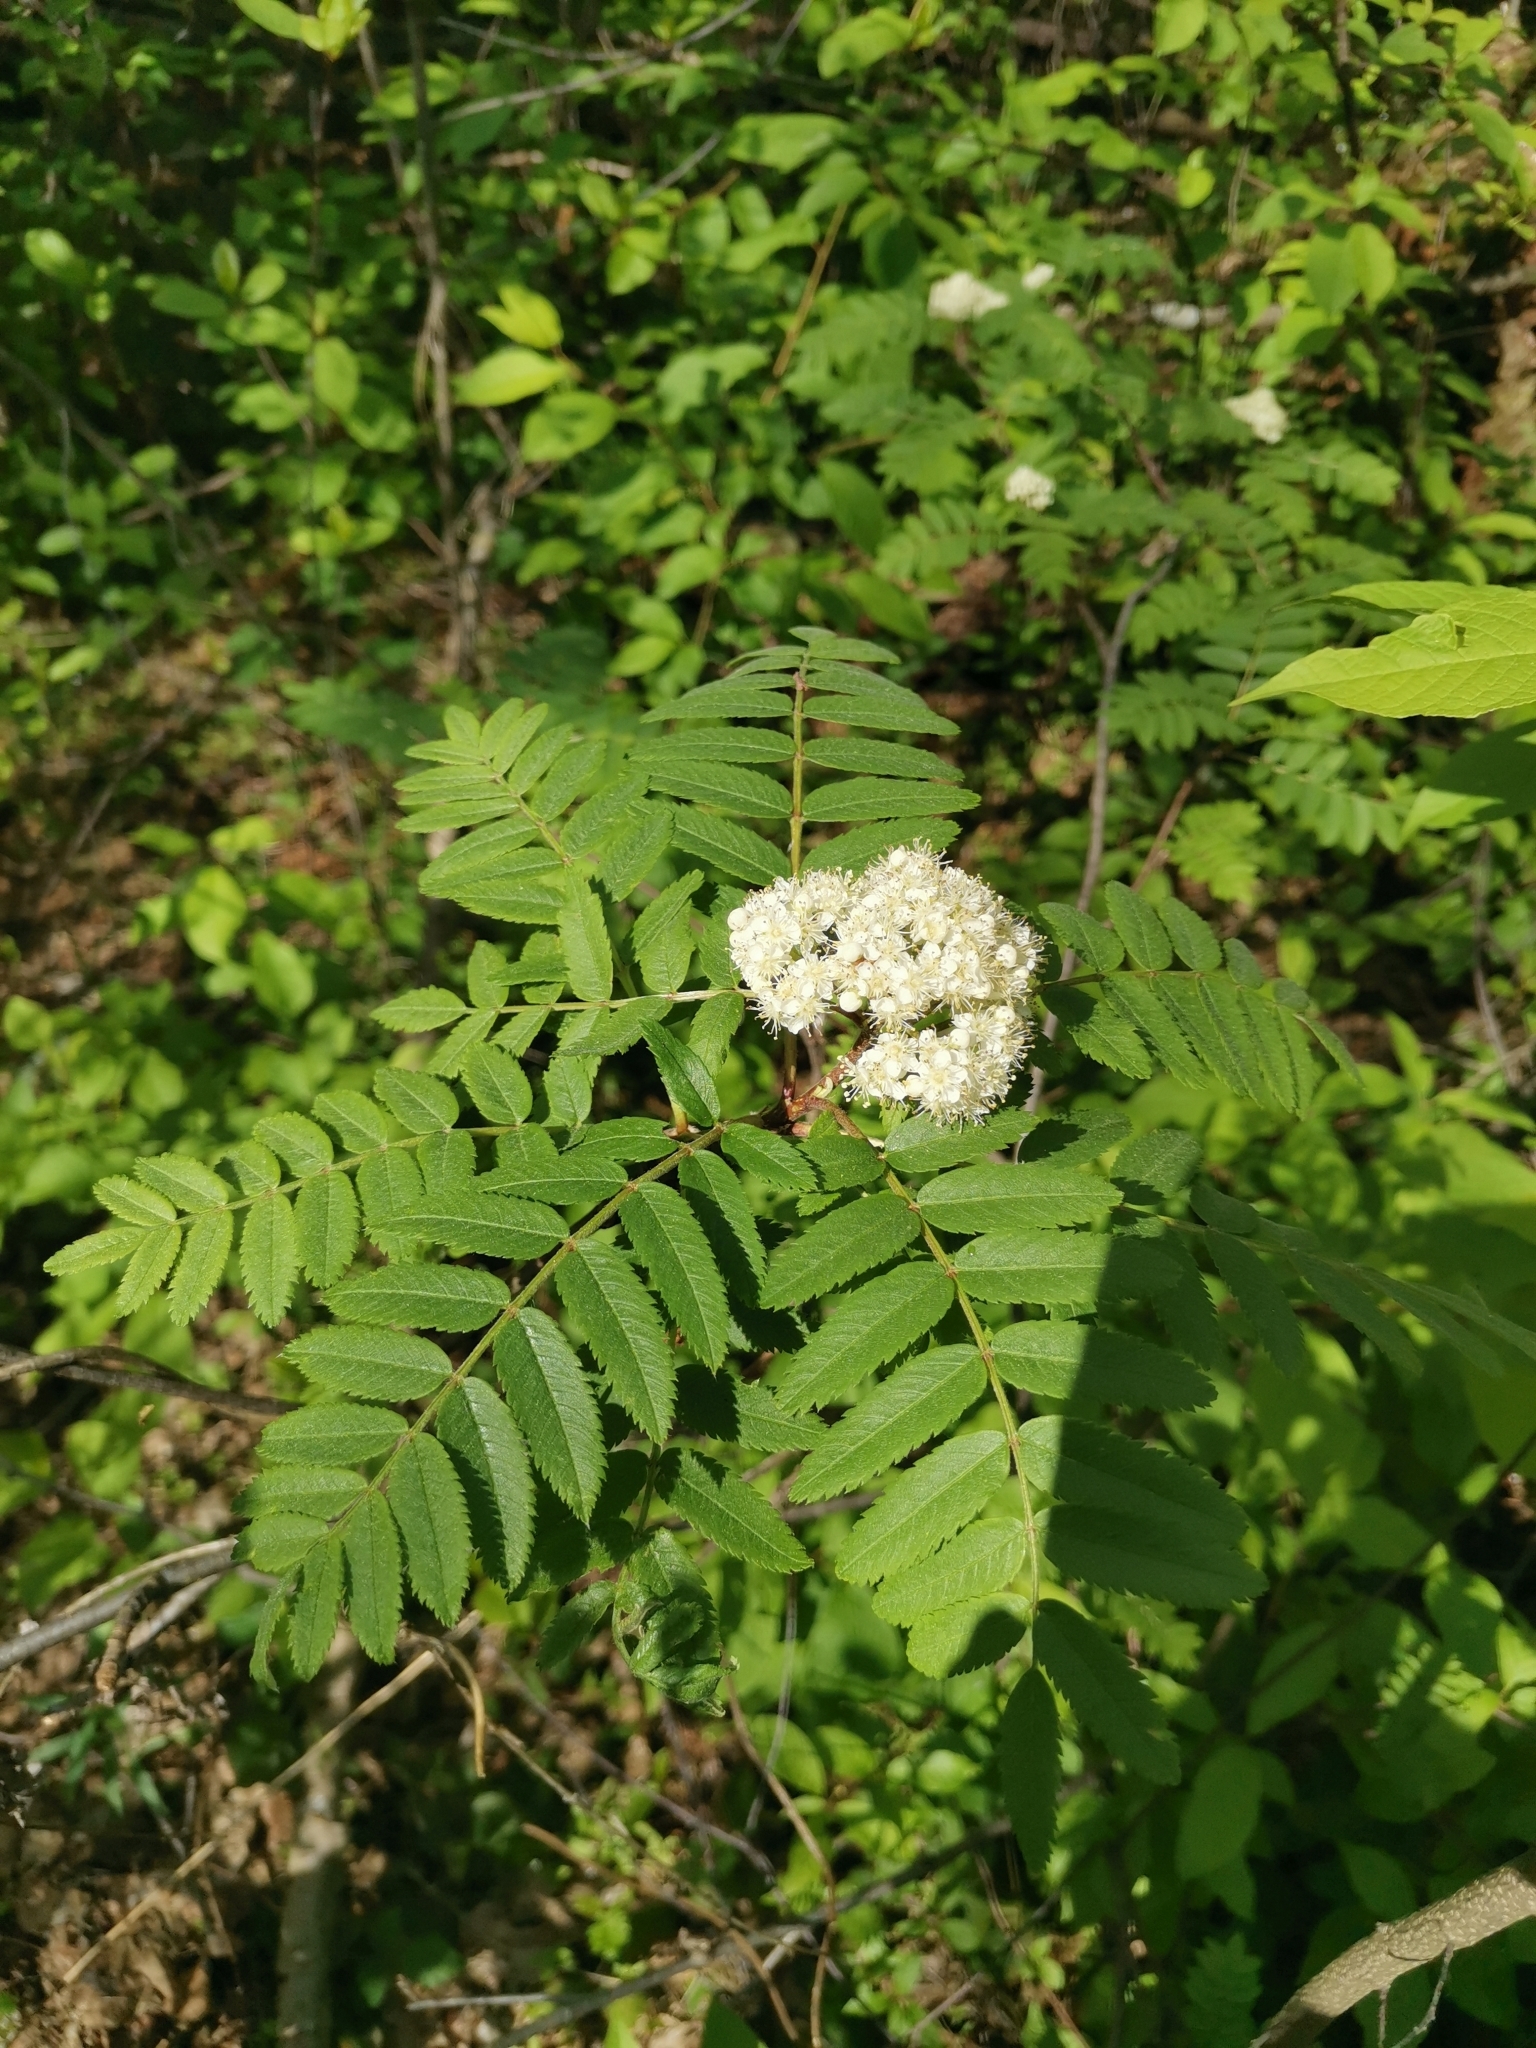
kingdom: Plantae
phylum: Tracheophyta
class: Magnoliopsida
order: Rosales
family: Rosaceae
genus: Sorbus
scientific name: Sorbus aucuparia
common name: Rowan
